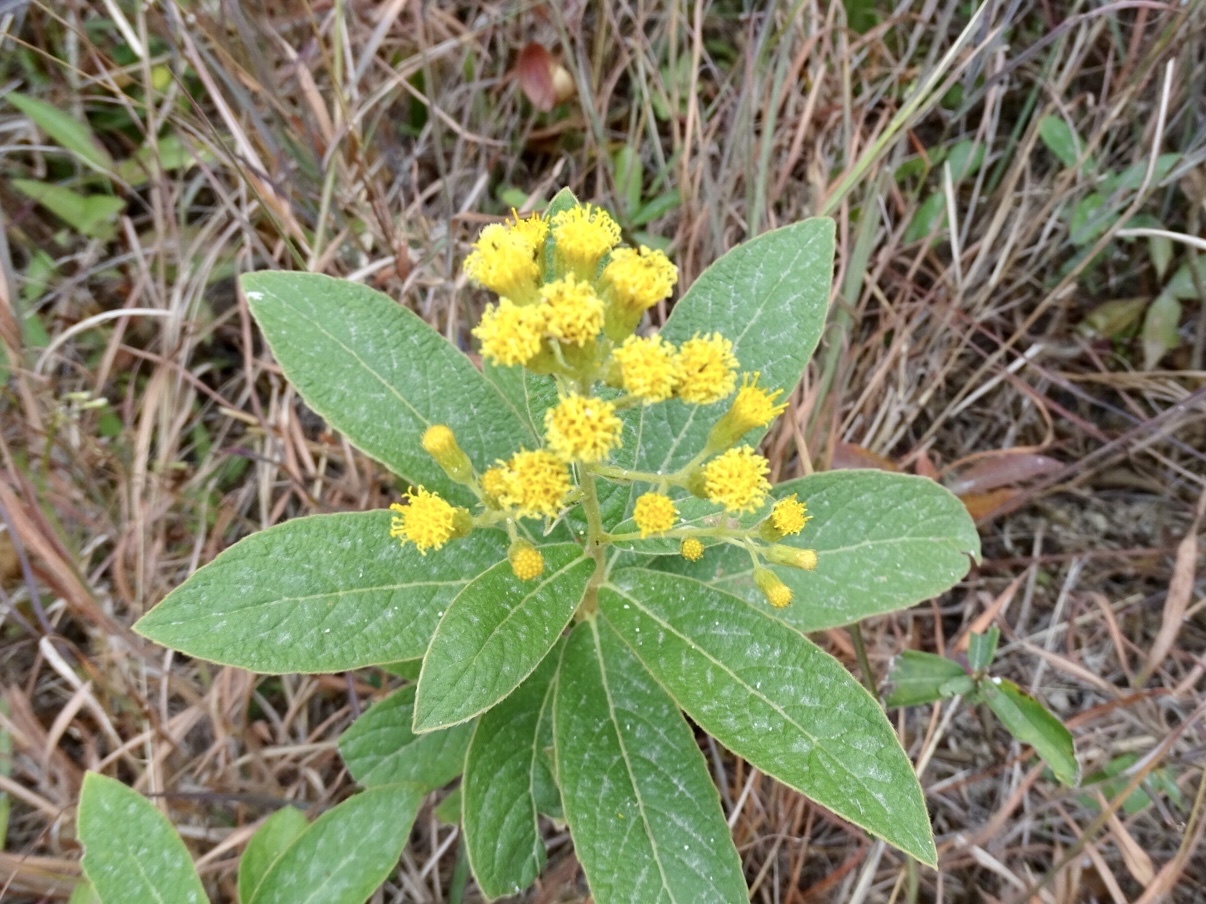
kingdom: Plantae
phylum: Tracheophyta
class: Magnoliopsida
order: Asterales
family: Asteraceae
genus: Duhaldea
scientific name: Duhaldea cappa
